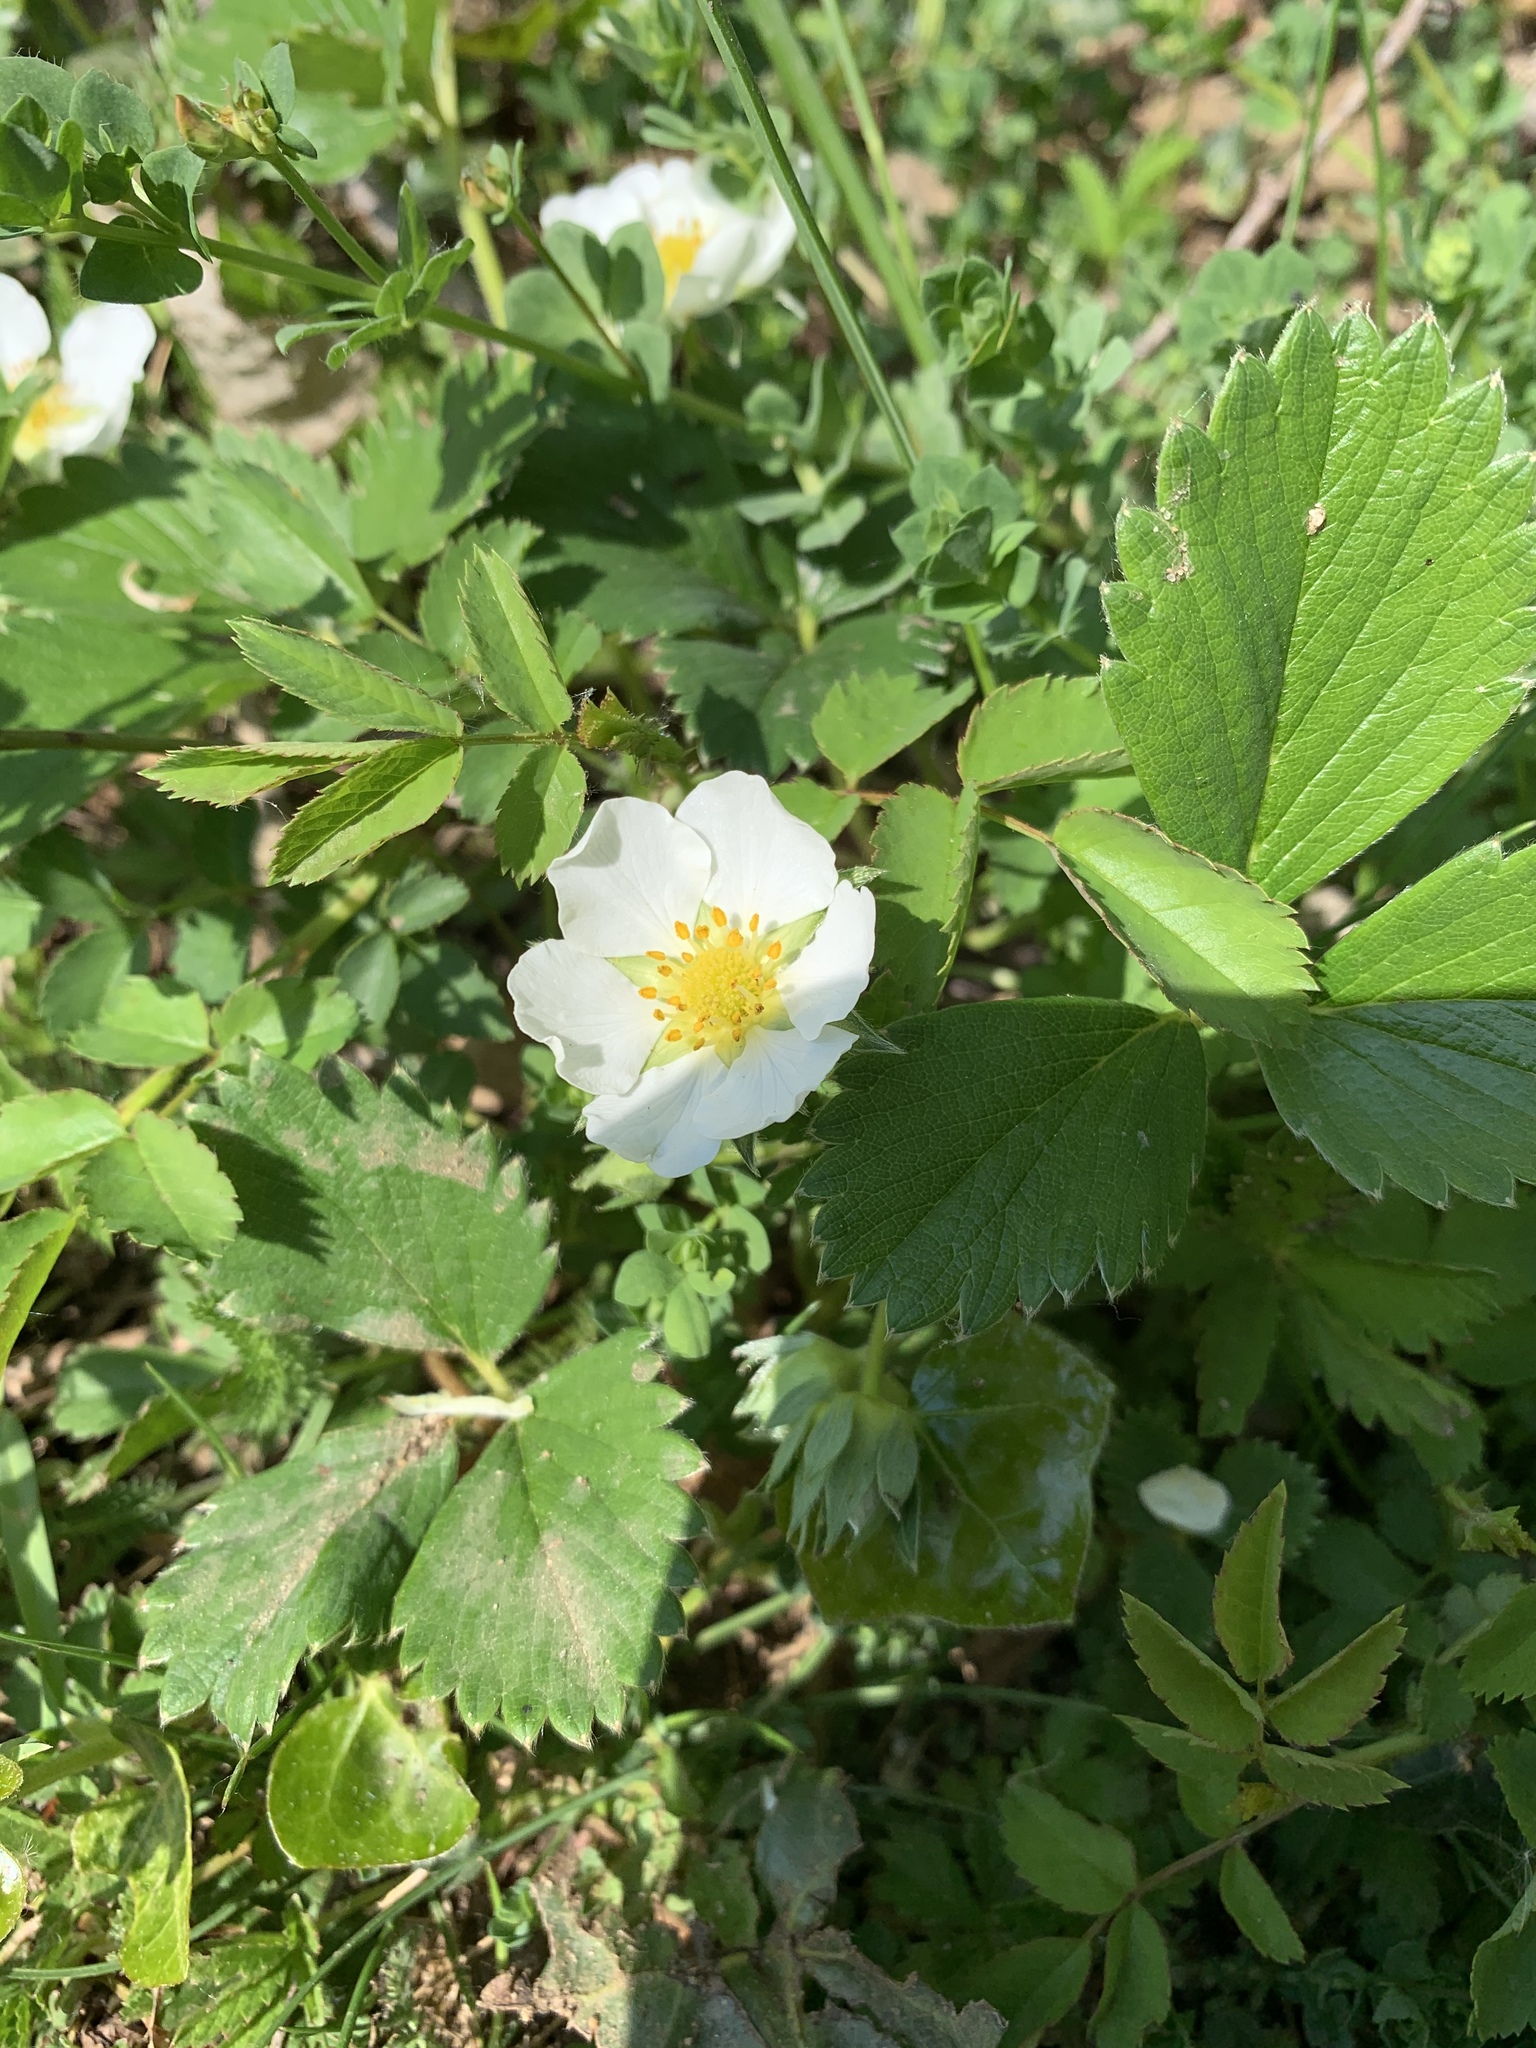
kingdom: Plantae
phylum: Tracheophyta
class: Magnoliopsida
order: Rosales
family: Rosaceae
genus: Fragaria
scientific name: Fragaria vesca
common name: Wild strawberry
